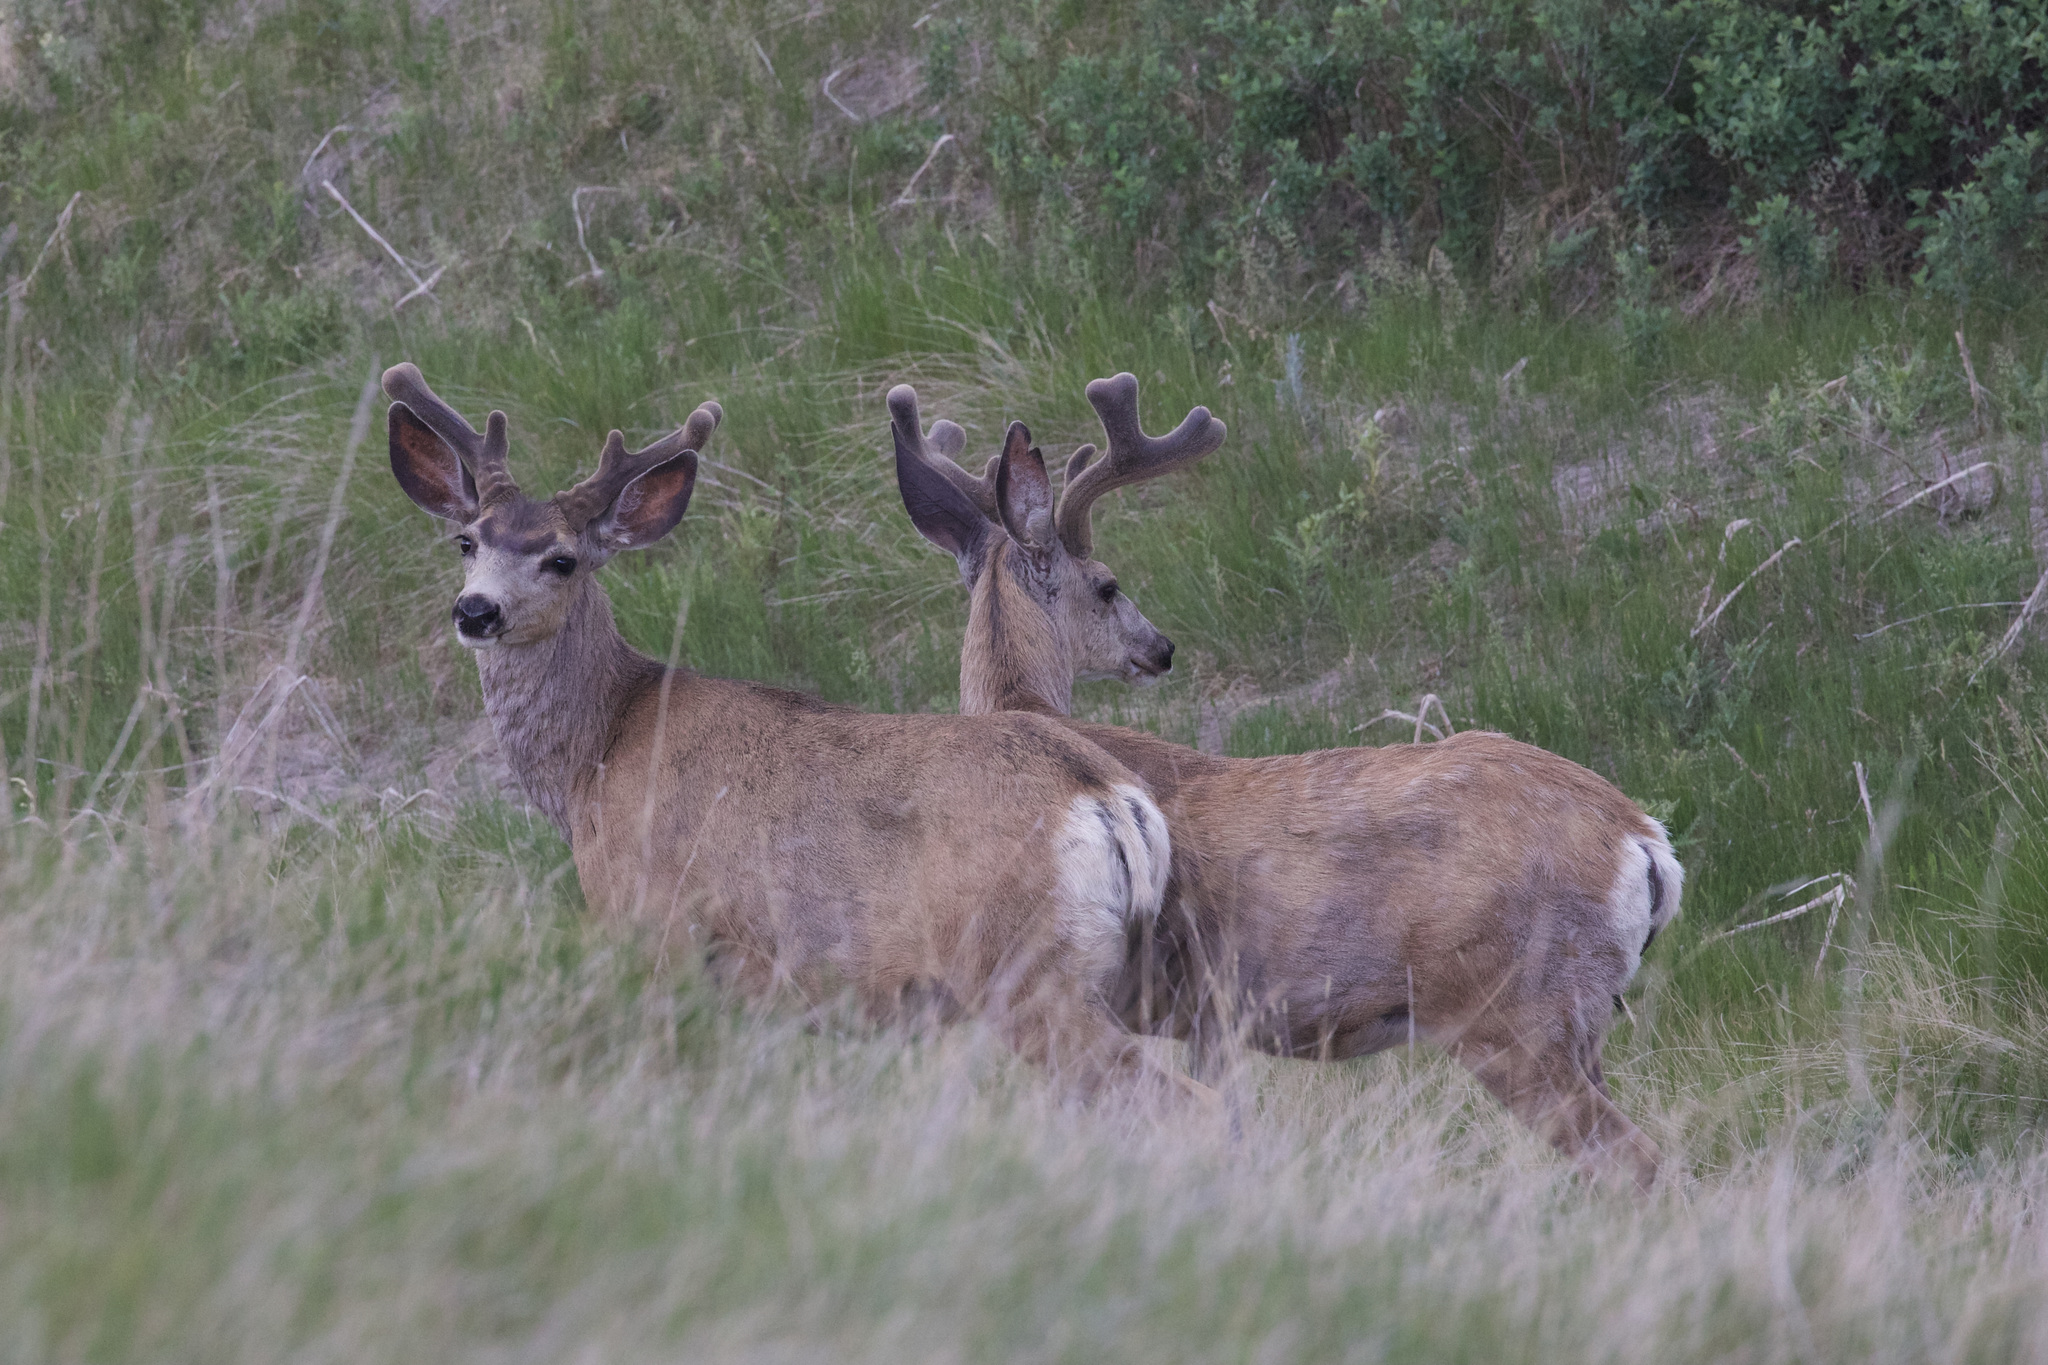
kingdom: Animalia
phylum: Chordata
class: Mammalia
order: Artiodactyla
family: Cervidae
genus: Odocoileus
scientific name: Odocoileus hemionus
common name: Mule deer
